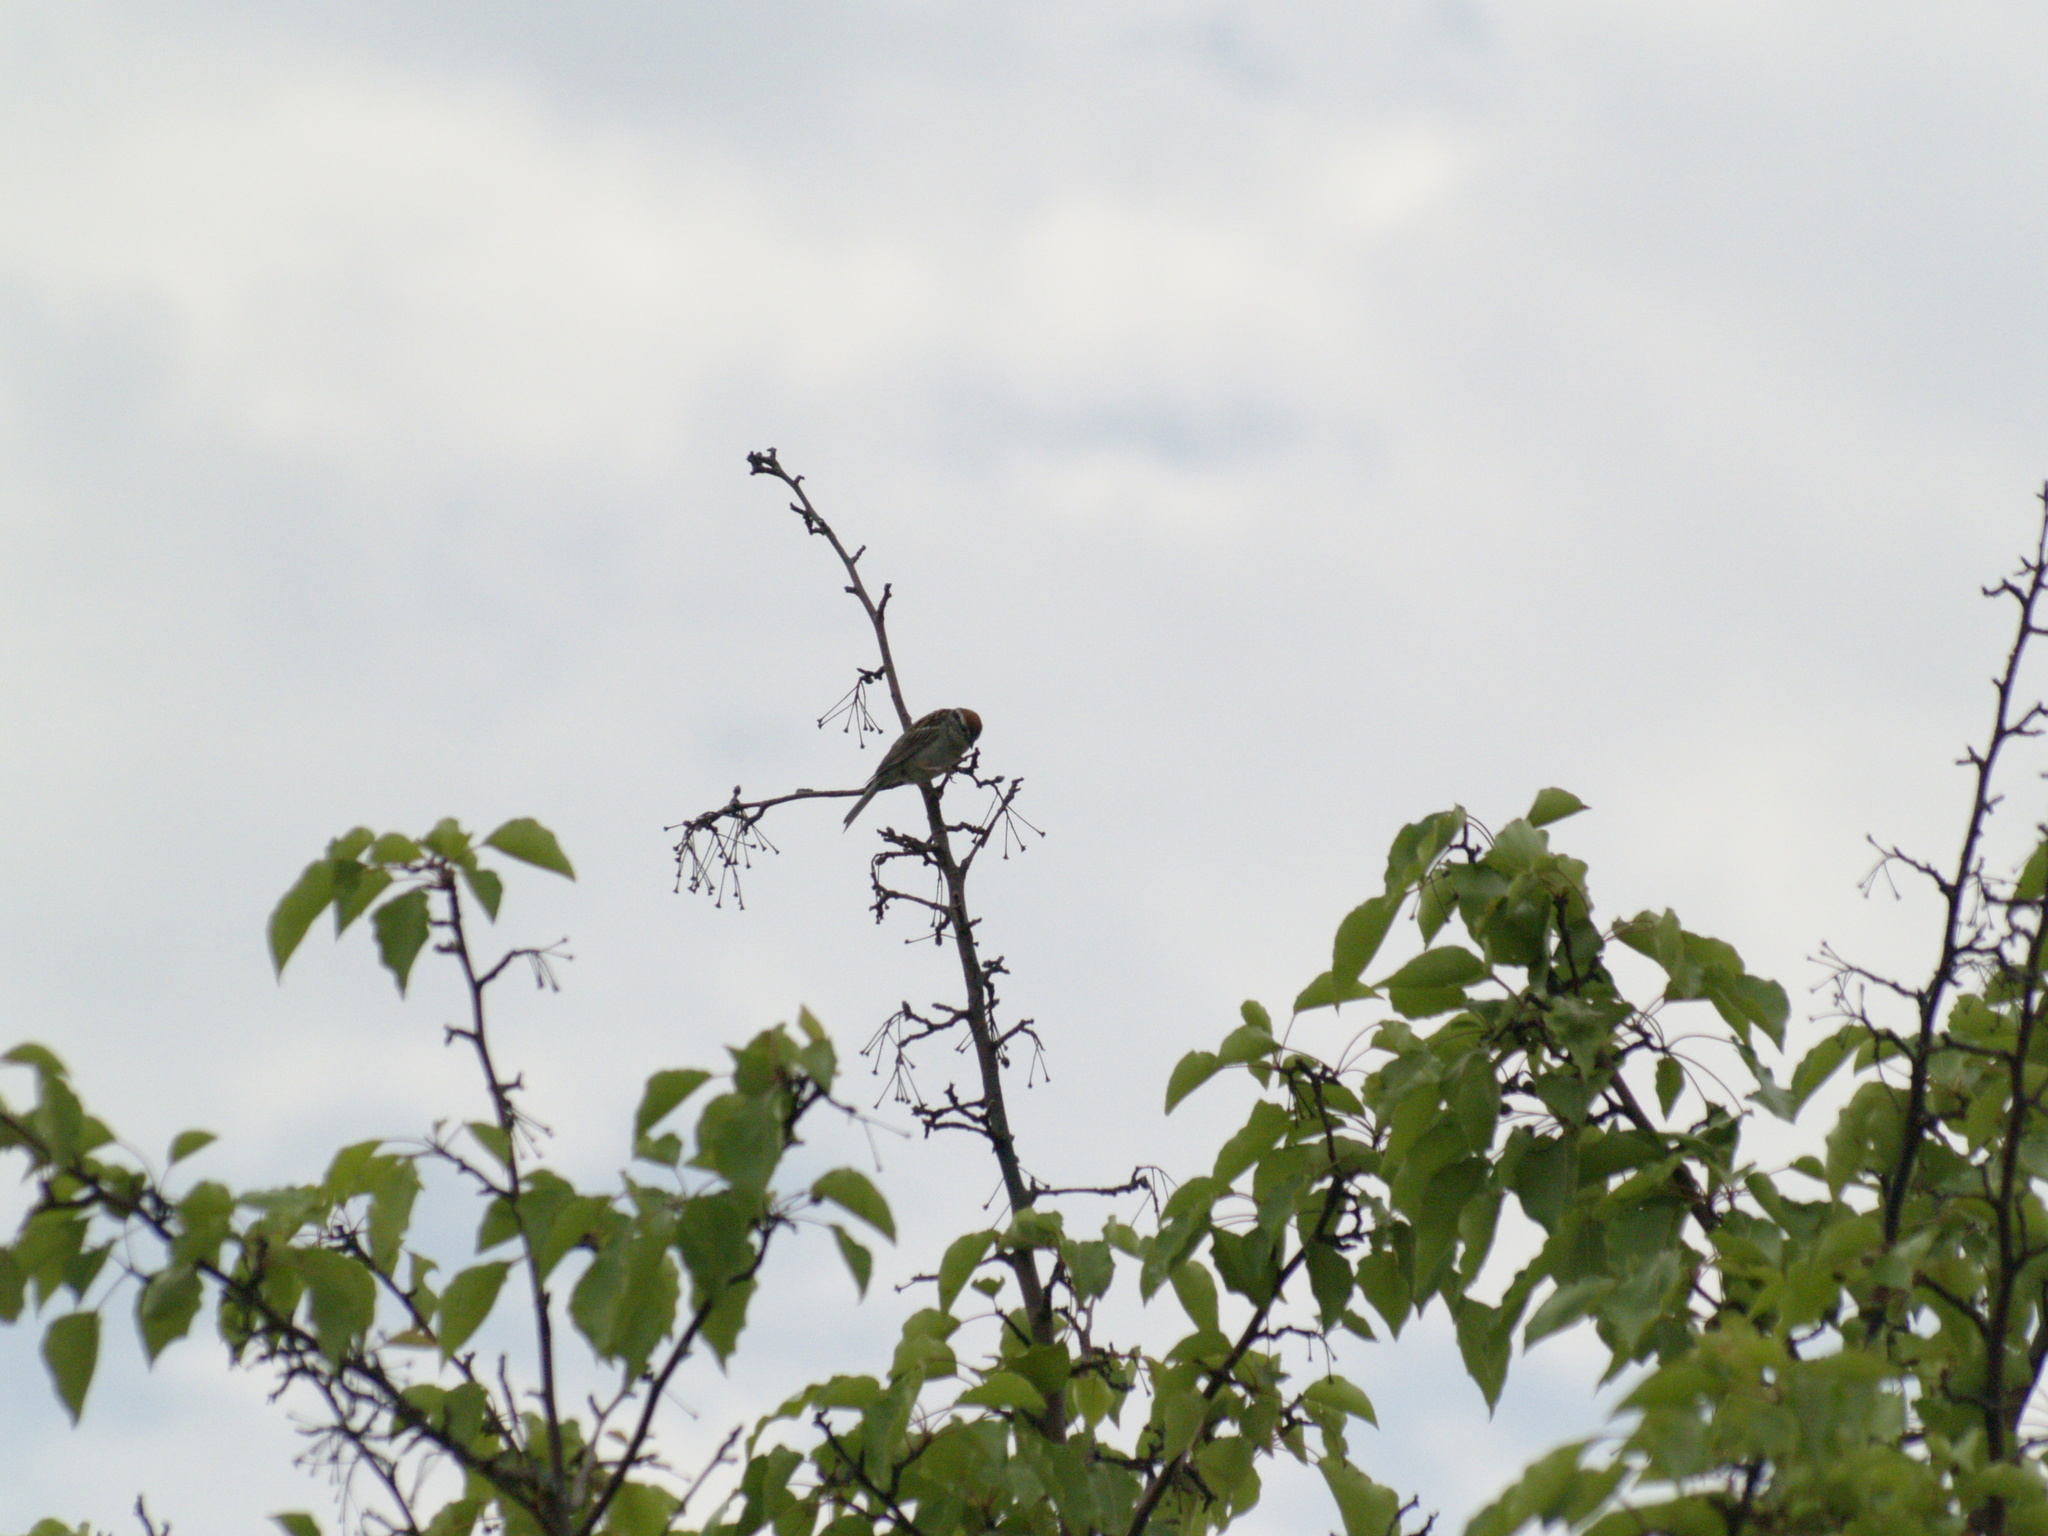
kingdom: Animalia
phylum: Chordata
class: Aves
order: Passeriformes
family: Passerellidae
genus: Spizella
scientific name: Spizella passerina
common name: Chipping sparrow
